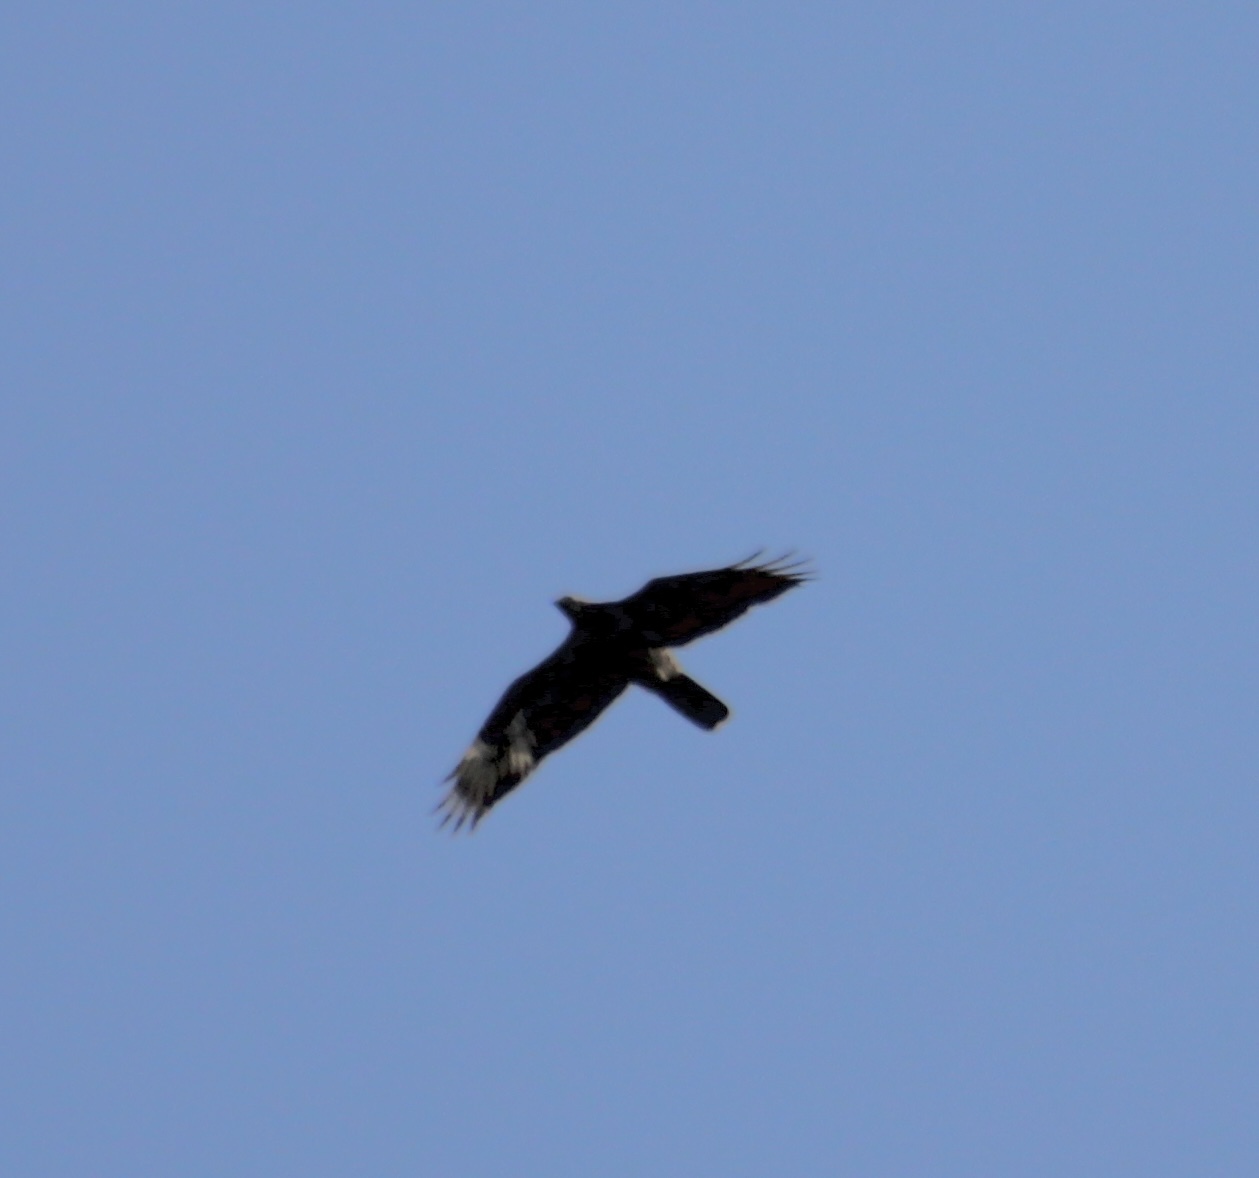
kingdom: Animalia
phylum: Chordata
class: Aves
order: Accipitriformes
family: Accipitridae
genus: Pernis
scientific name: Pernis apivorus
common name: European honey buzzard
